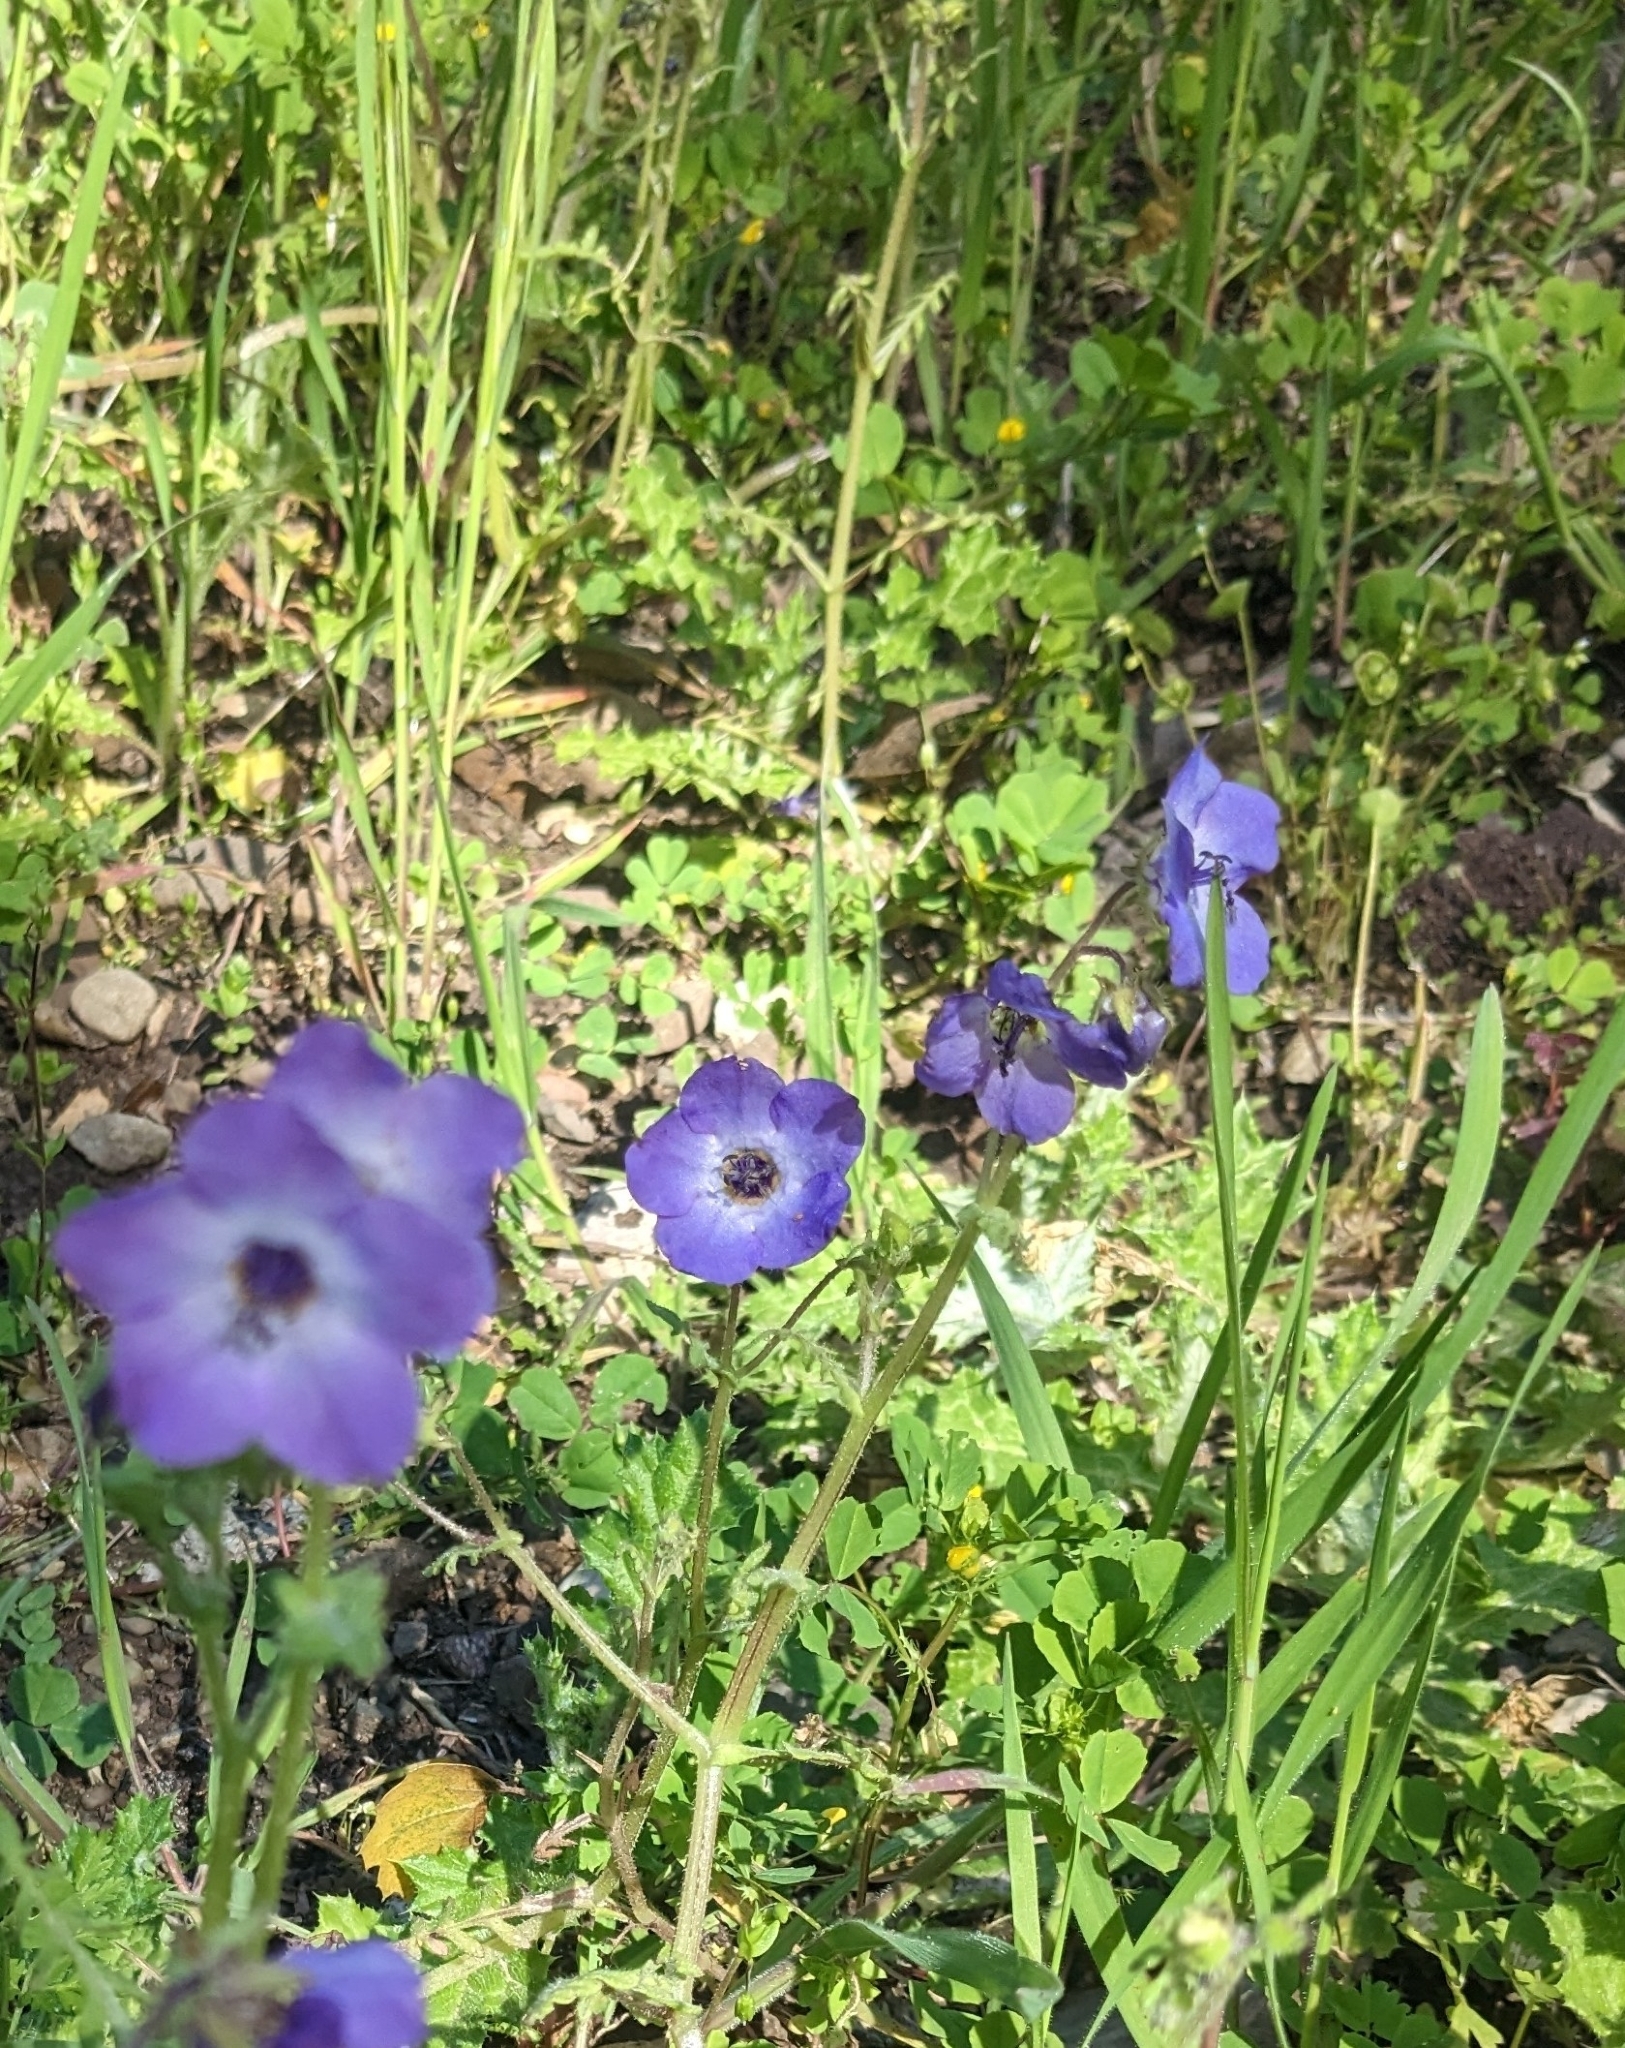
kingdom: Plantae
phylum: Tracheophyta
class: Magnoliopsida
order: Boraginales
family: Hydrophyllaceae
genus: Pholistoma
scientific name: Pholistoma auritum
